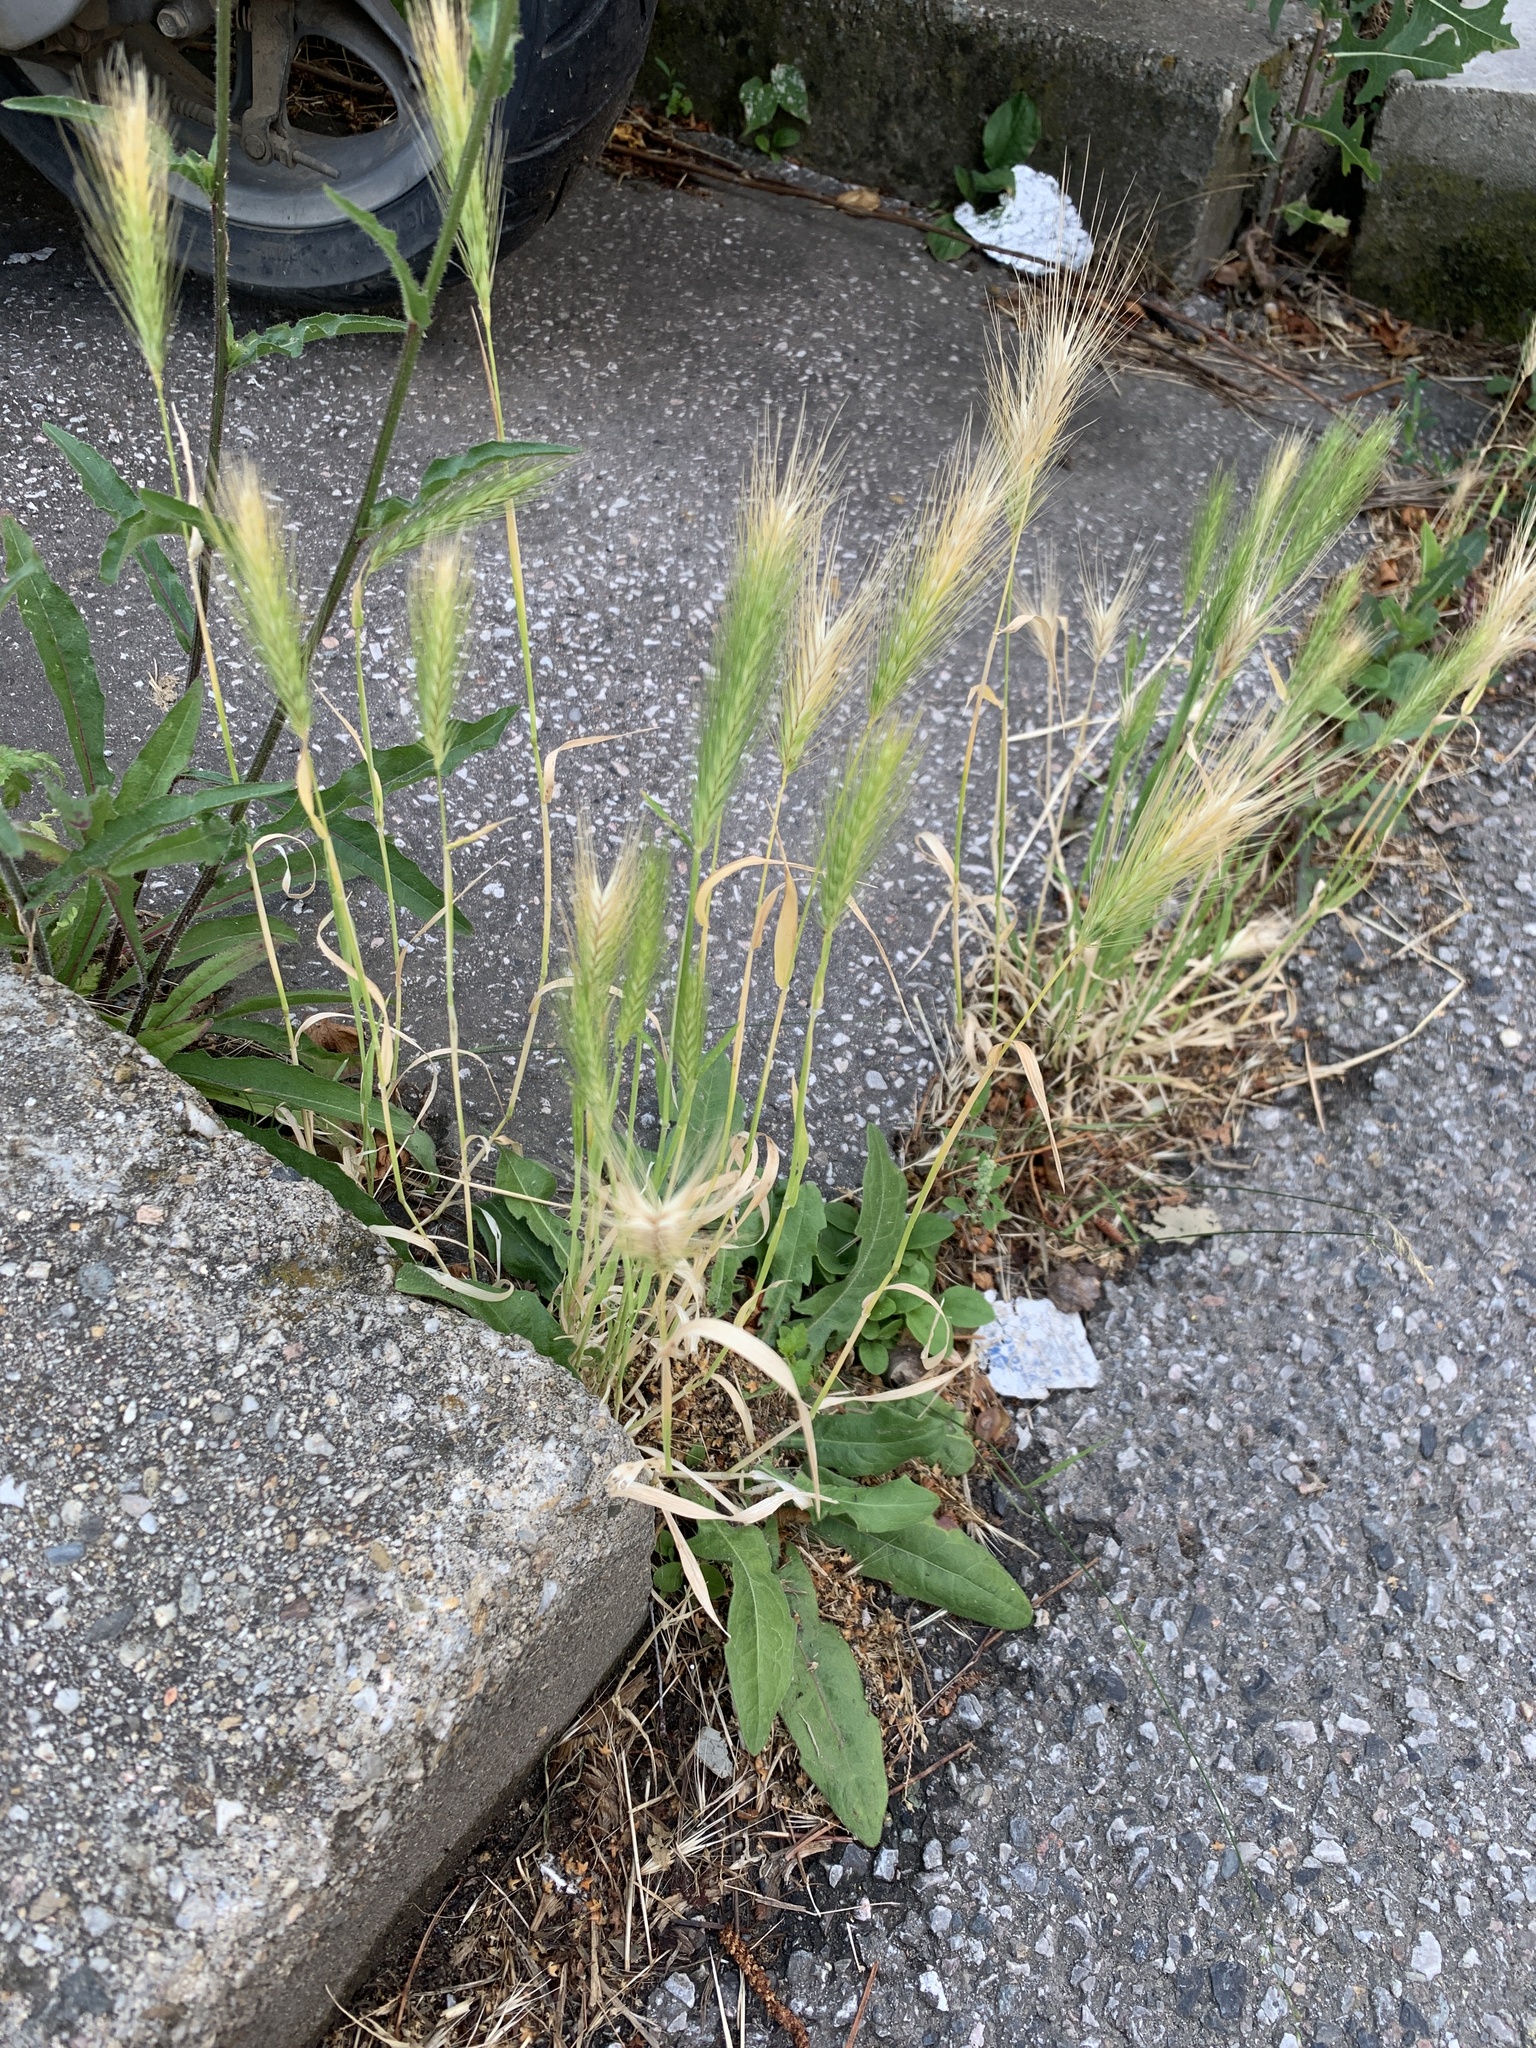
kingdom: Plantae
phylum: Tracheophyta
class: Liliopsida
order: Poales
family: Poaceae
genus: Hordeum
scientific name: Hordeum murinum
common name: Wall barley
